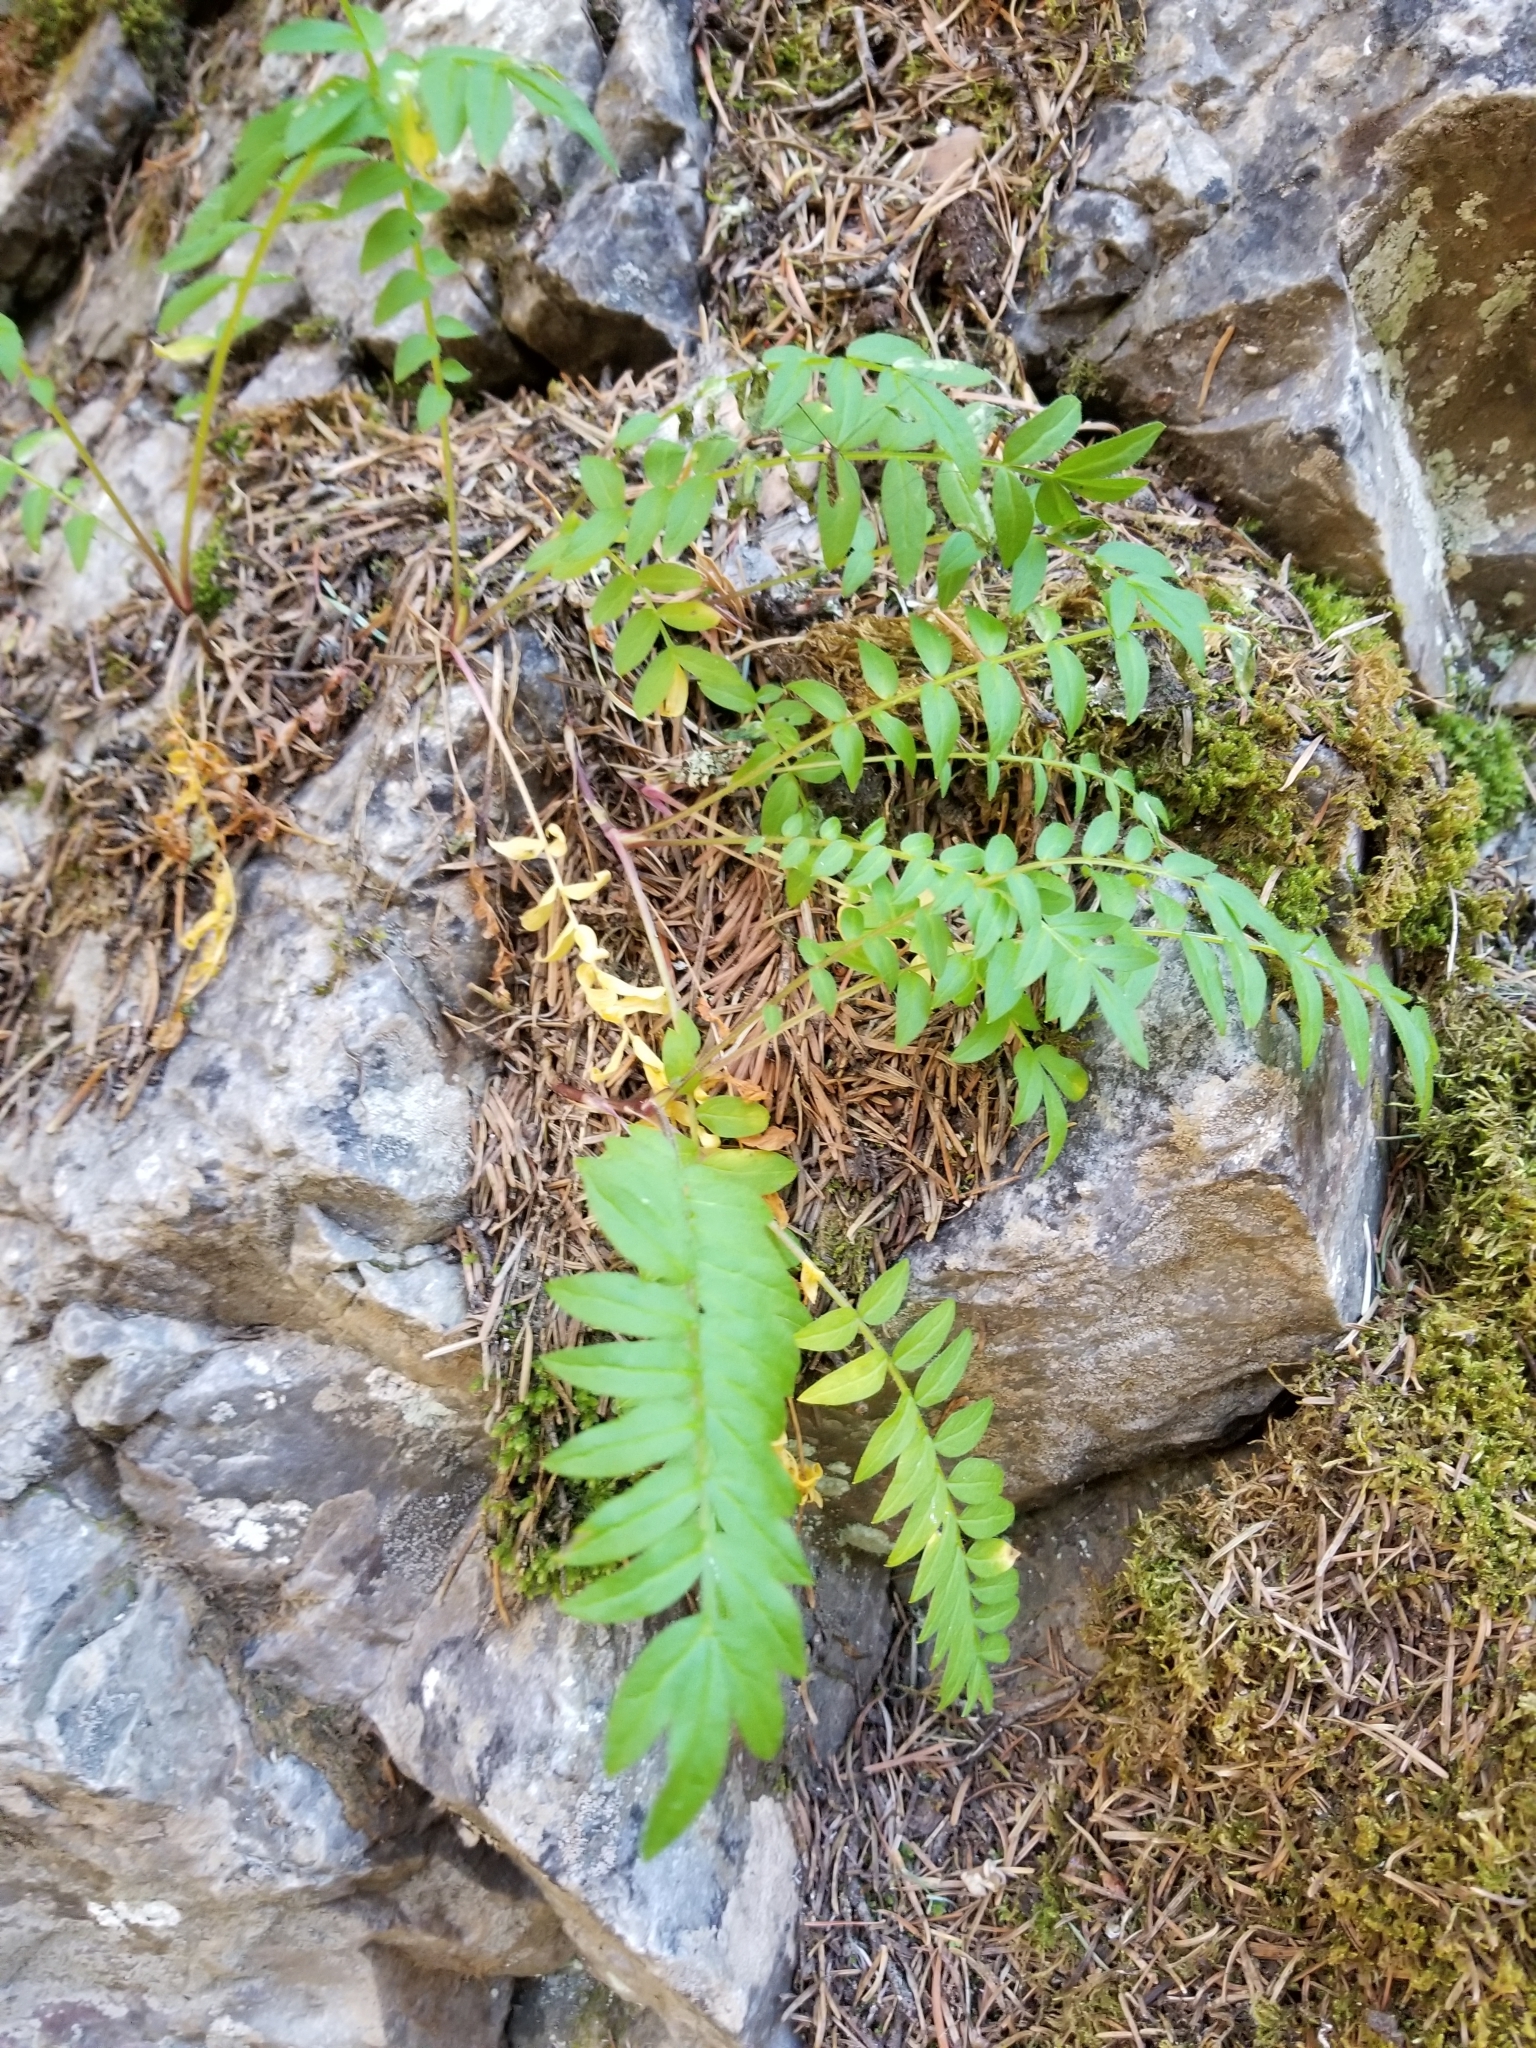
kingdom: Plantae
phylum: Tracheophyta
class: Magnoliopsida
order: Ericales
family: Polemoniaceae
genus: Polemonium
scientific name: Polemonium pulcherrimum
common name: Short jacob's-ladder
